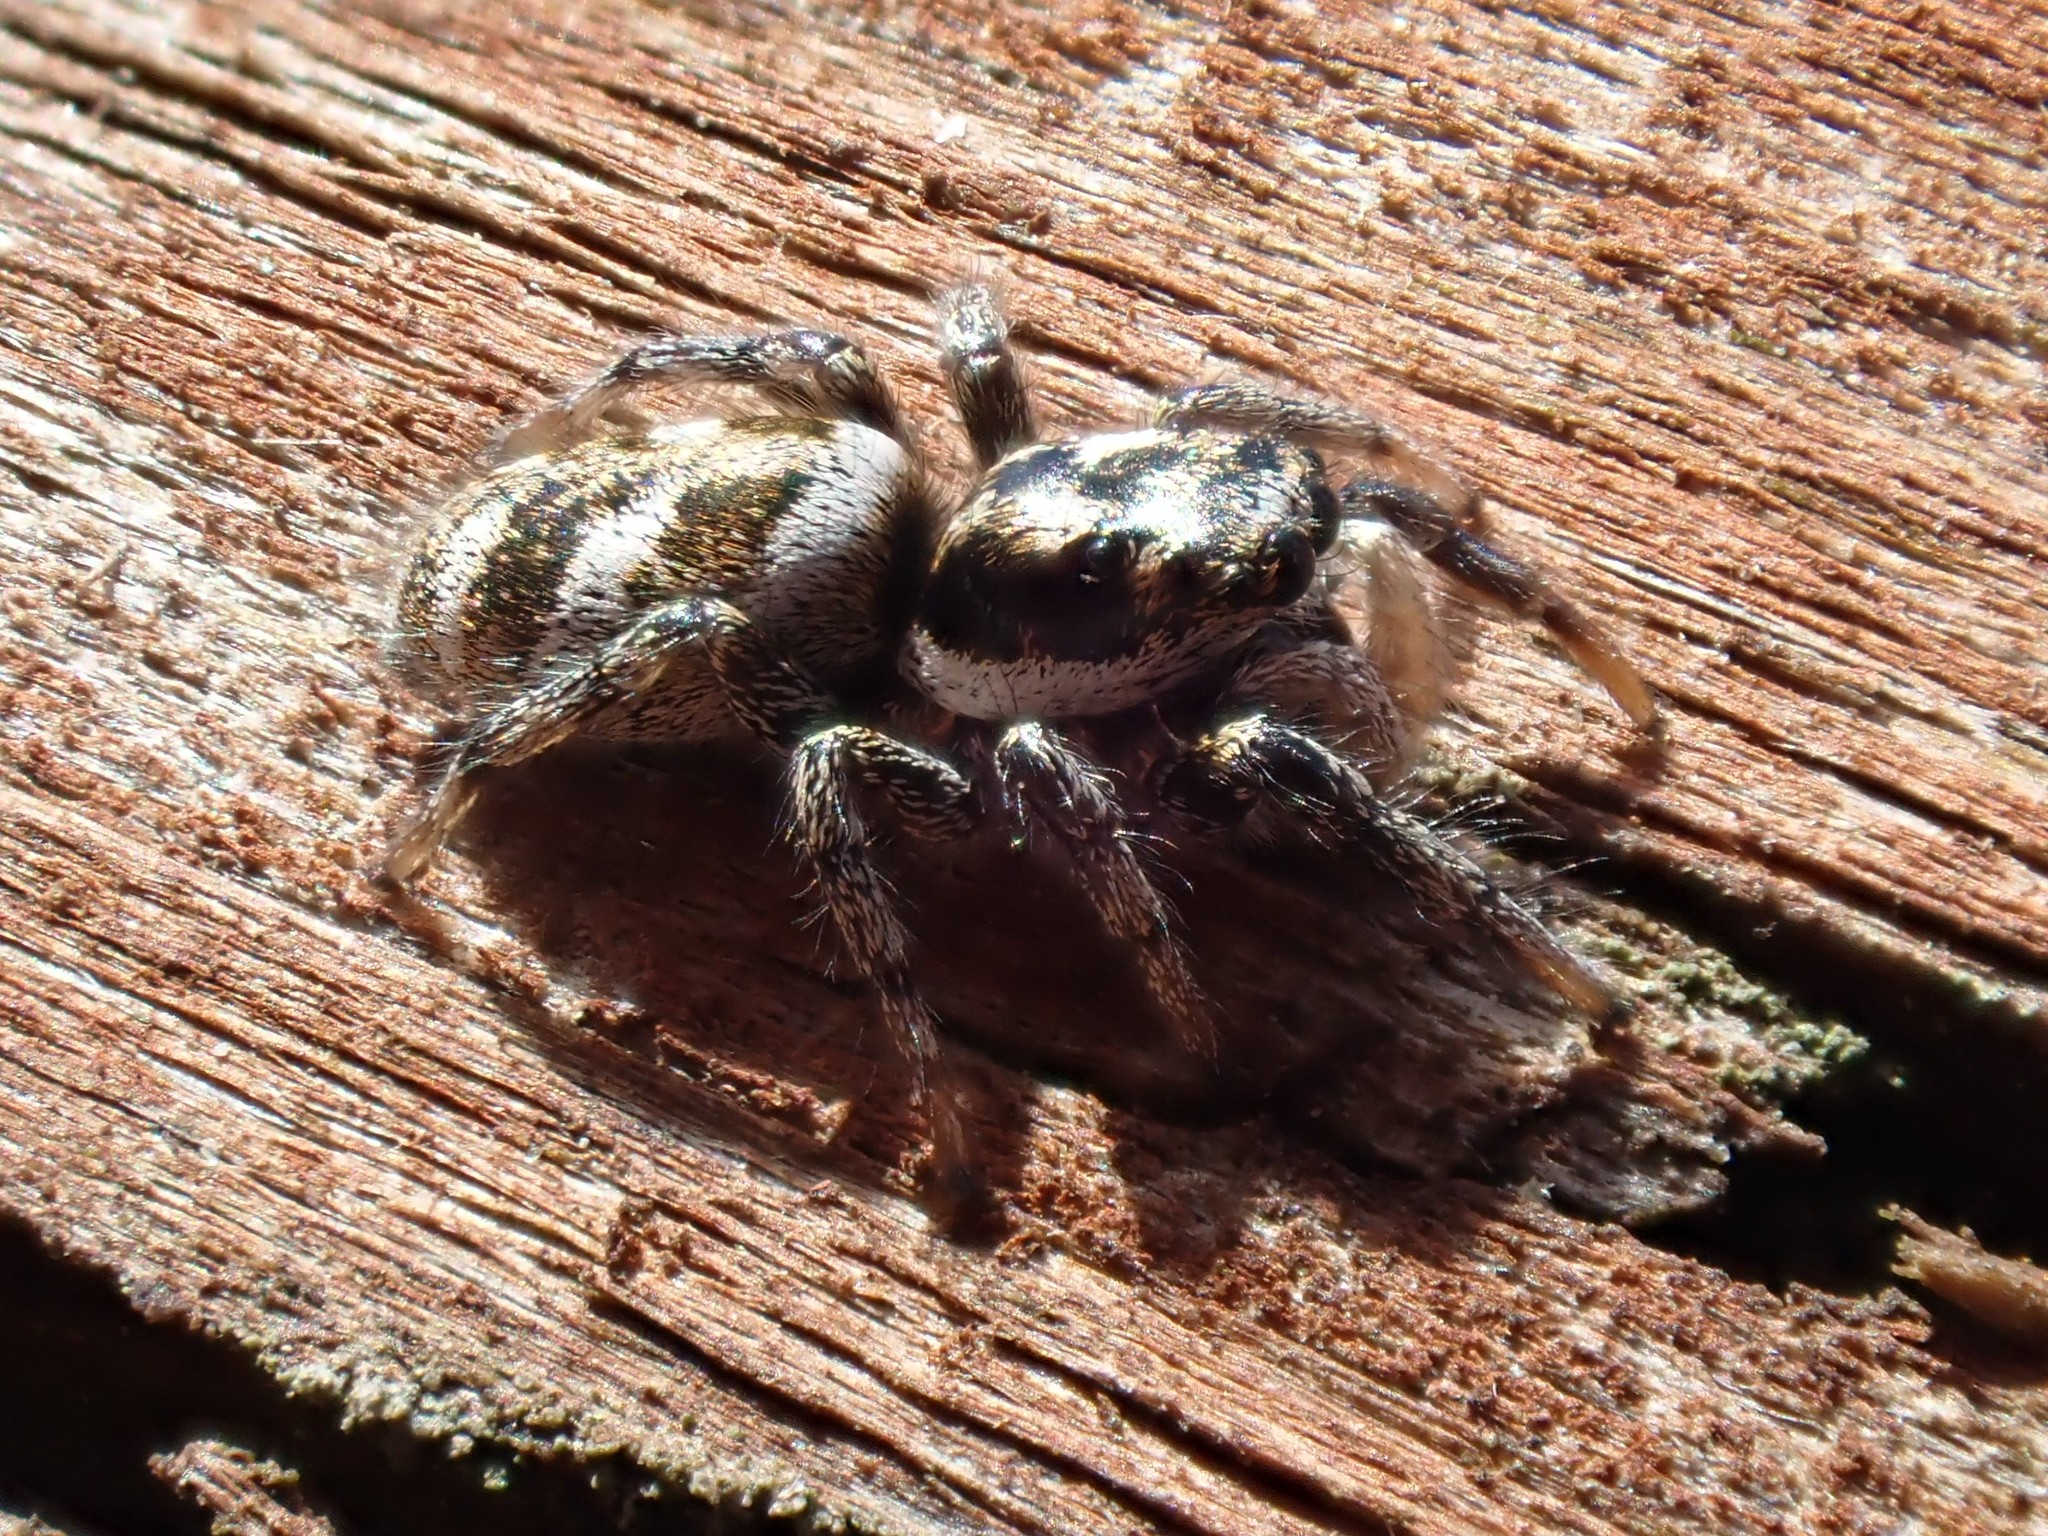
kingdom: Animalia
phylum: Arthropoda
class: Arachnida
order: Araneae
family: Salticidae
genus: Salticus
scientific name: Salticus scenicus
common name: Zebra jumper
